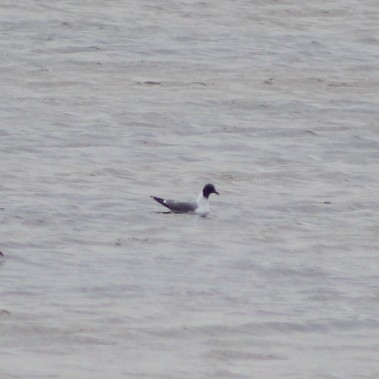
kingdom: Animalia
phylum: Chordata
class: Aves
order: Charadriiformes
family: Laridae
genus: Xema
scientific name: Xema sabini
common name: Sabine's gull
